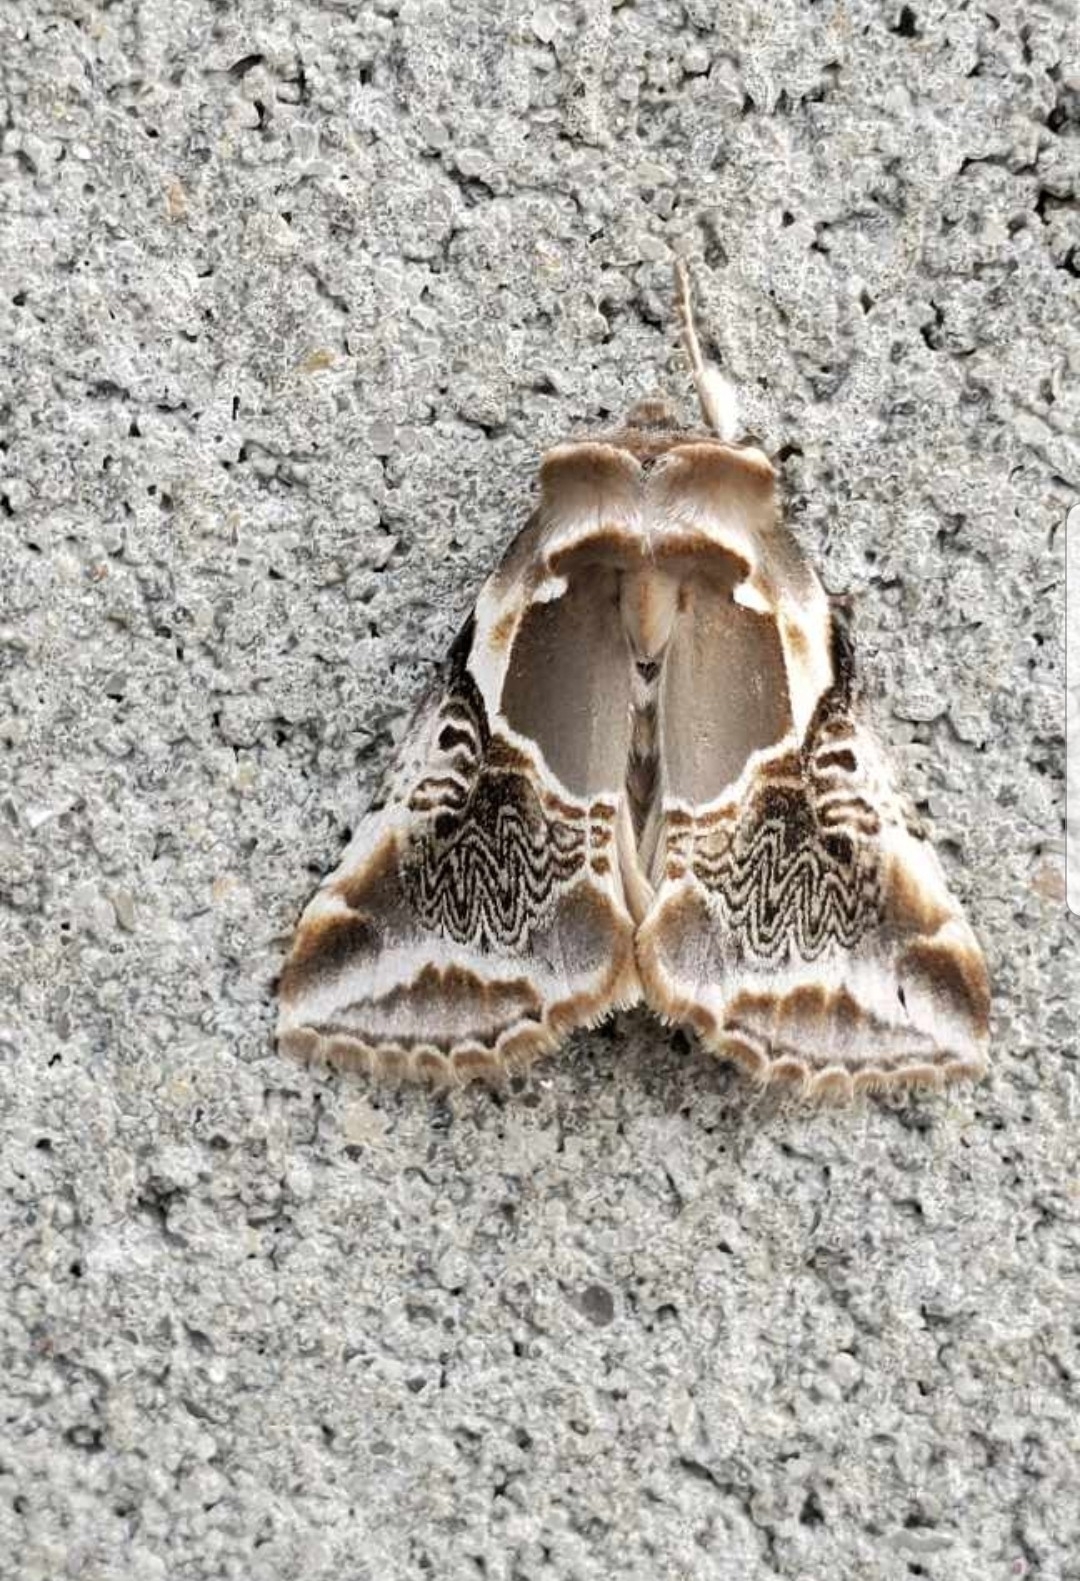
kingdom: Animalia
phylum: Arthropoda
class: Insecta
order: Lepidoptera
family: Drepanidae
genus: Habrosyne
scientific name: Habrosyne scripta
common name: Lettered habrosyne moth
